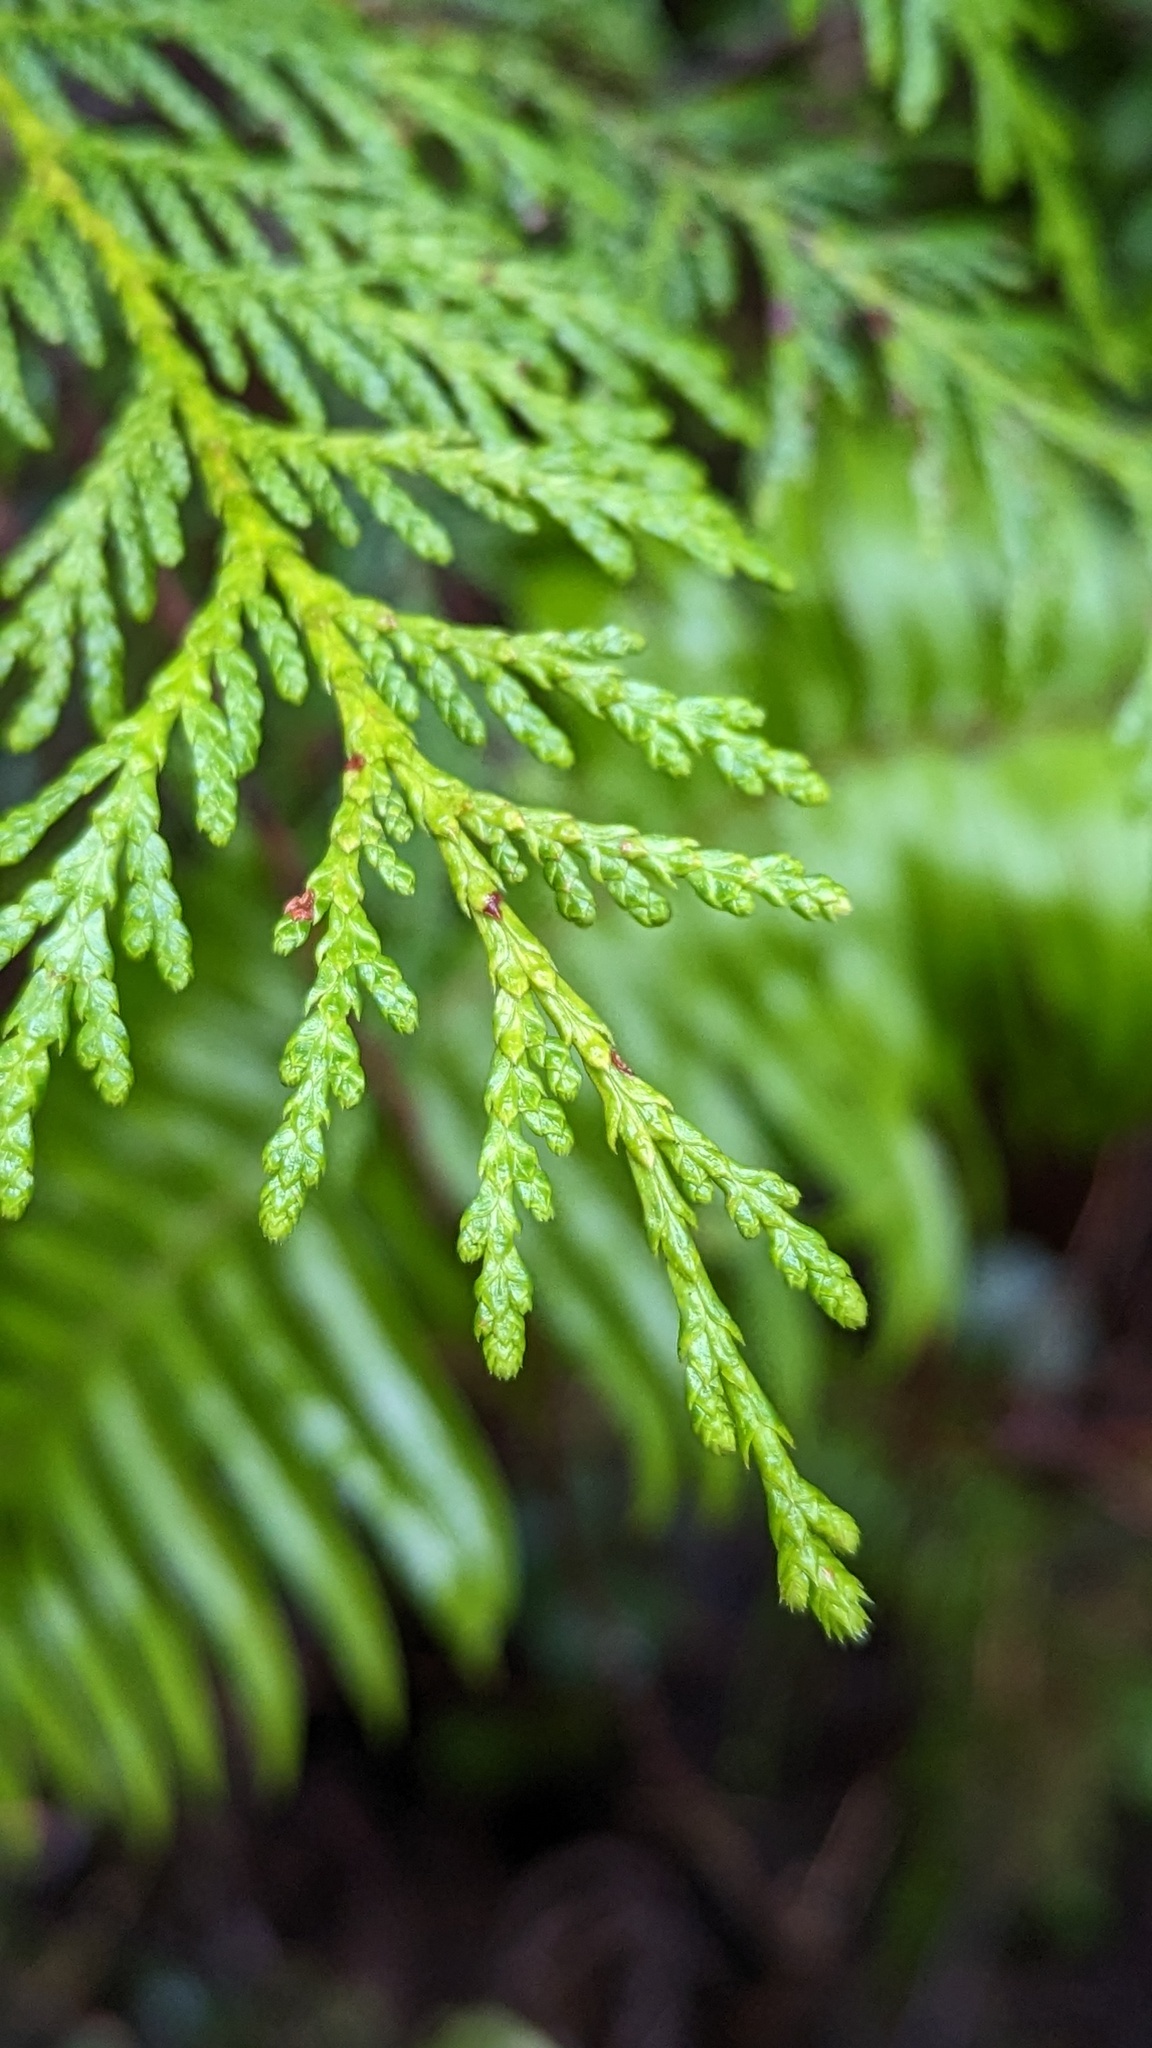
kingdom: Plantae
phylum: Tracheophyta
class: Pinopsida
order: Pinales
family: Cupressaceae
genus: Thuja
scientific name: Thuja plicata
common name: Western red-cedar
